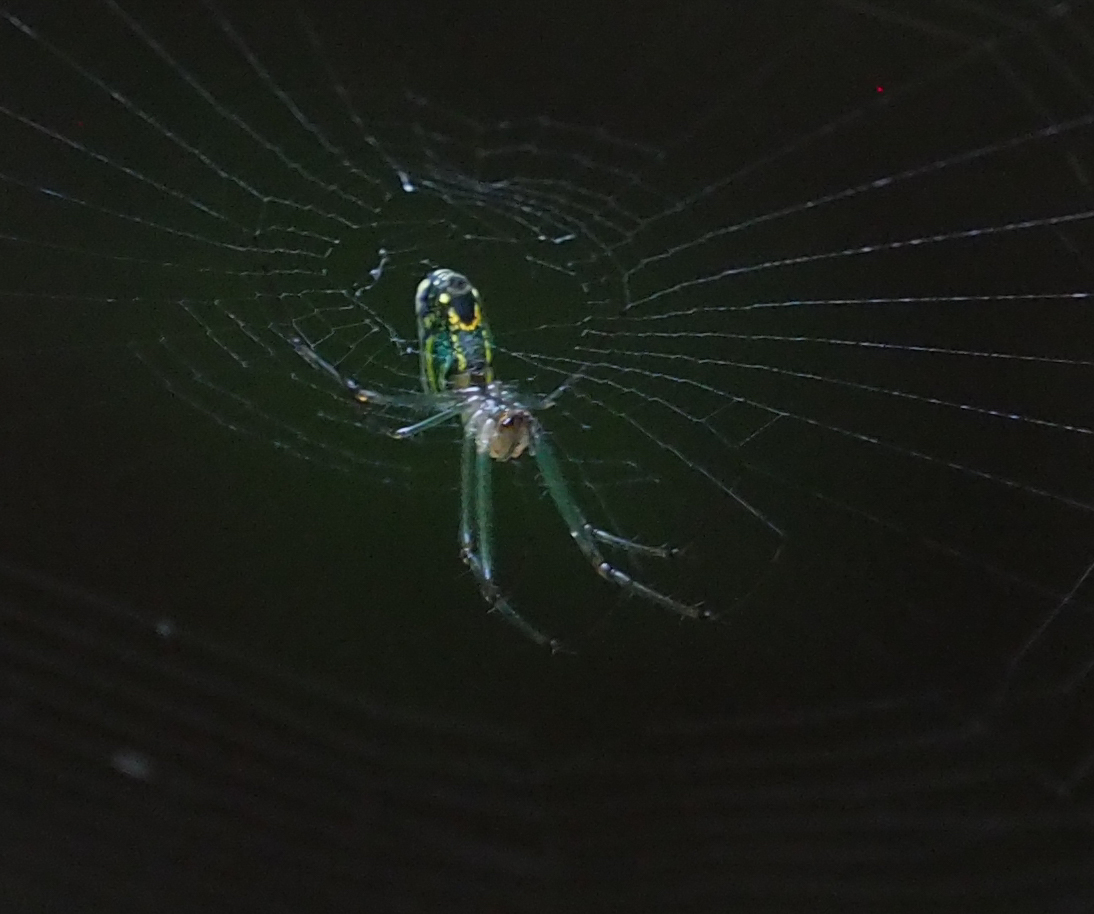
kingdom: Animalia
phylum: Arthropoda
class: Arachnida
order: Araneae
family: Tetragnathidae
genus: Leucauge
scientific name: Leucauge venusta
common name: Longjawed orb weavers
